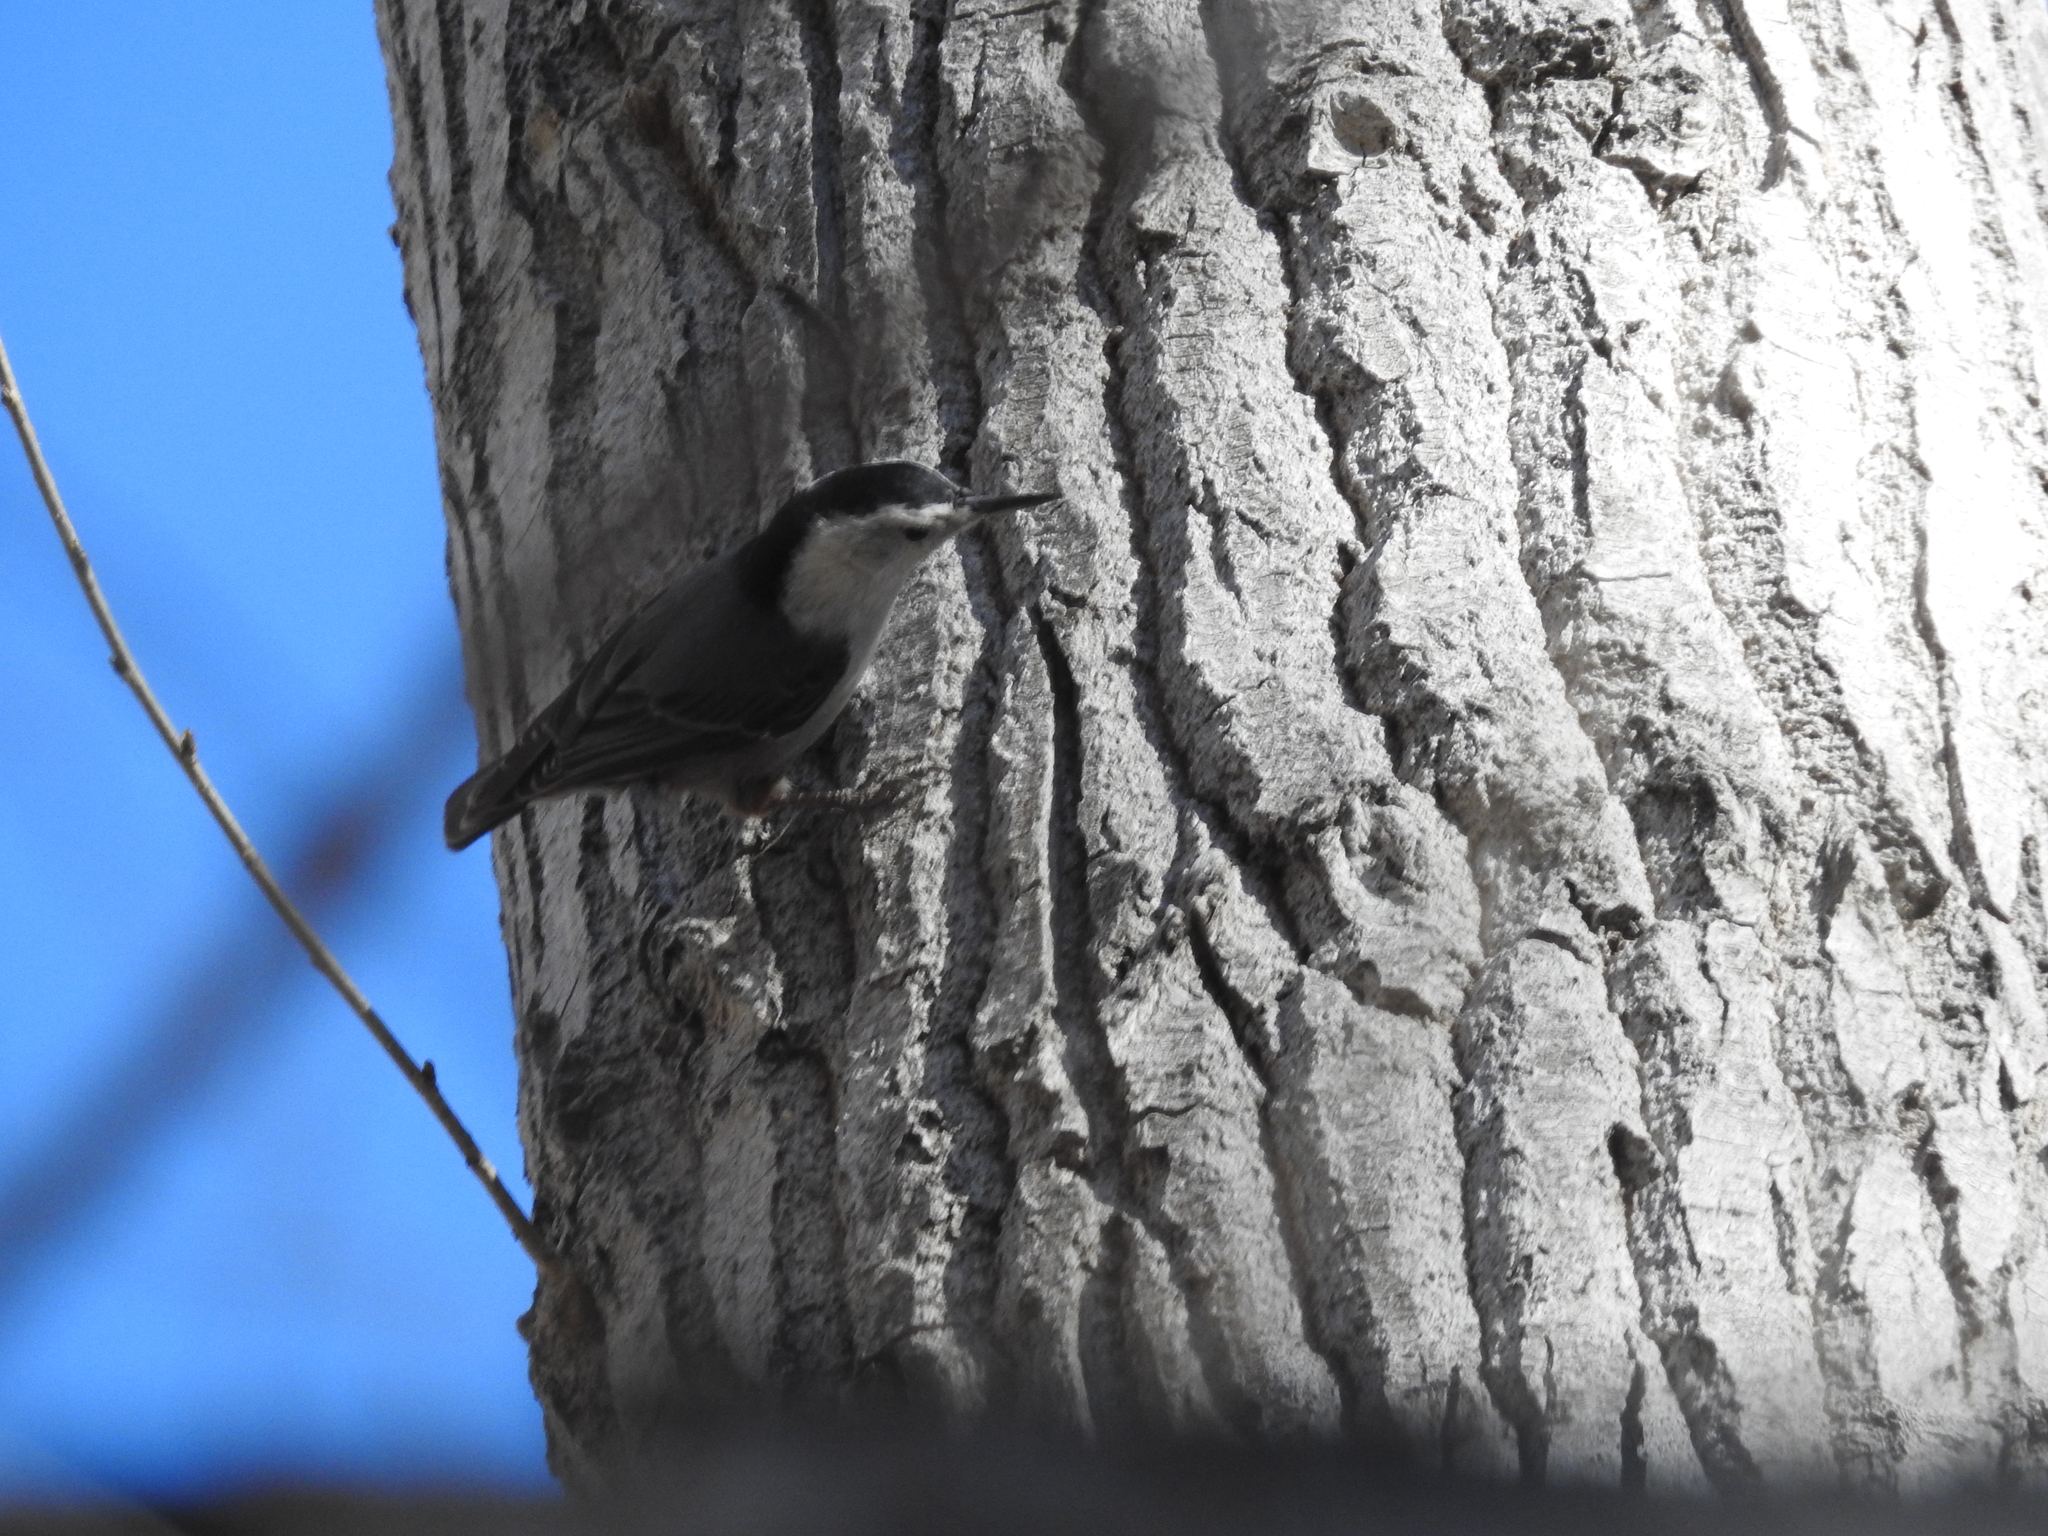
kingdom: Animalia
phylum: Chordata
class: Aves
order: Passeriformes
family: Sittidae
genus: Sitta
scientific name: Sitta carolinensis
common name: White-breasted nuthatch
